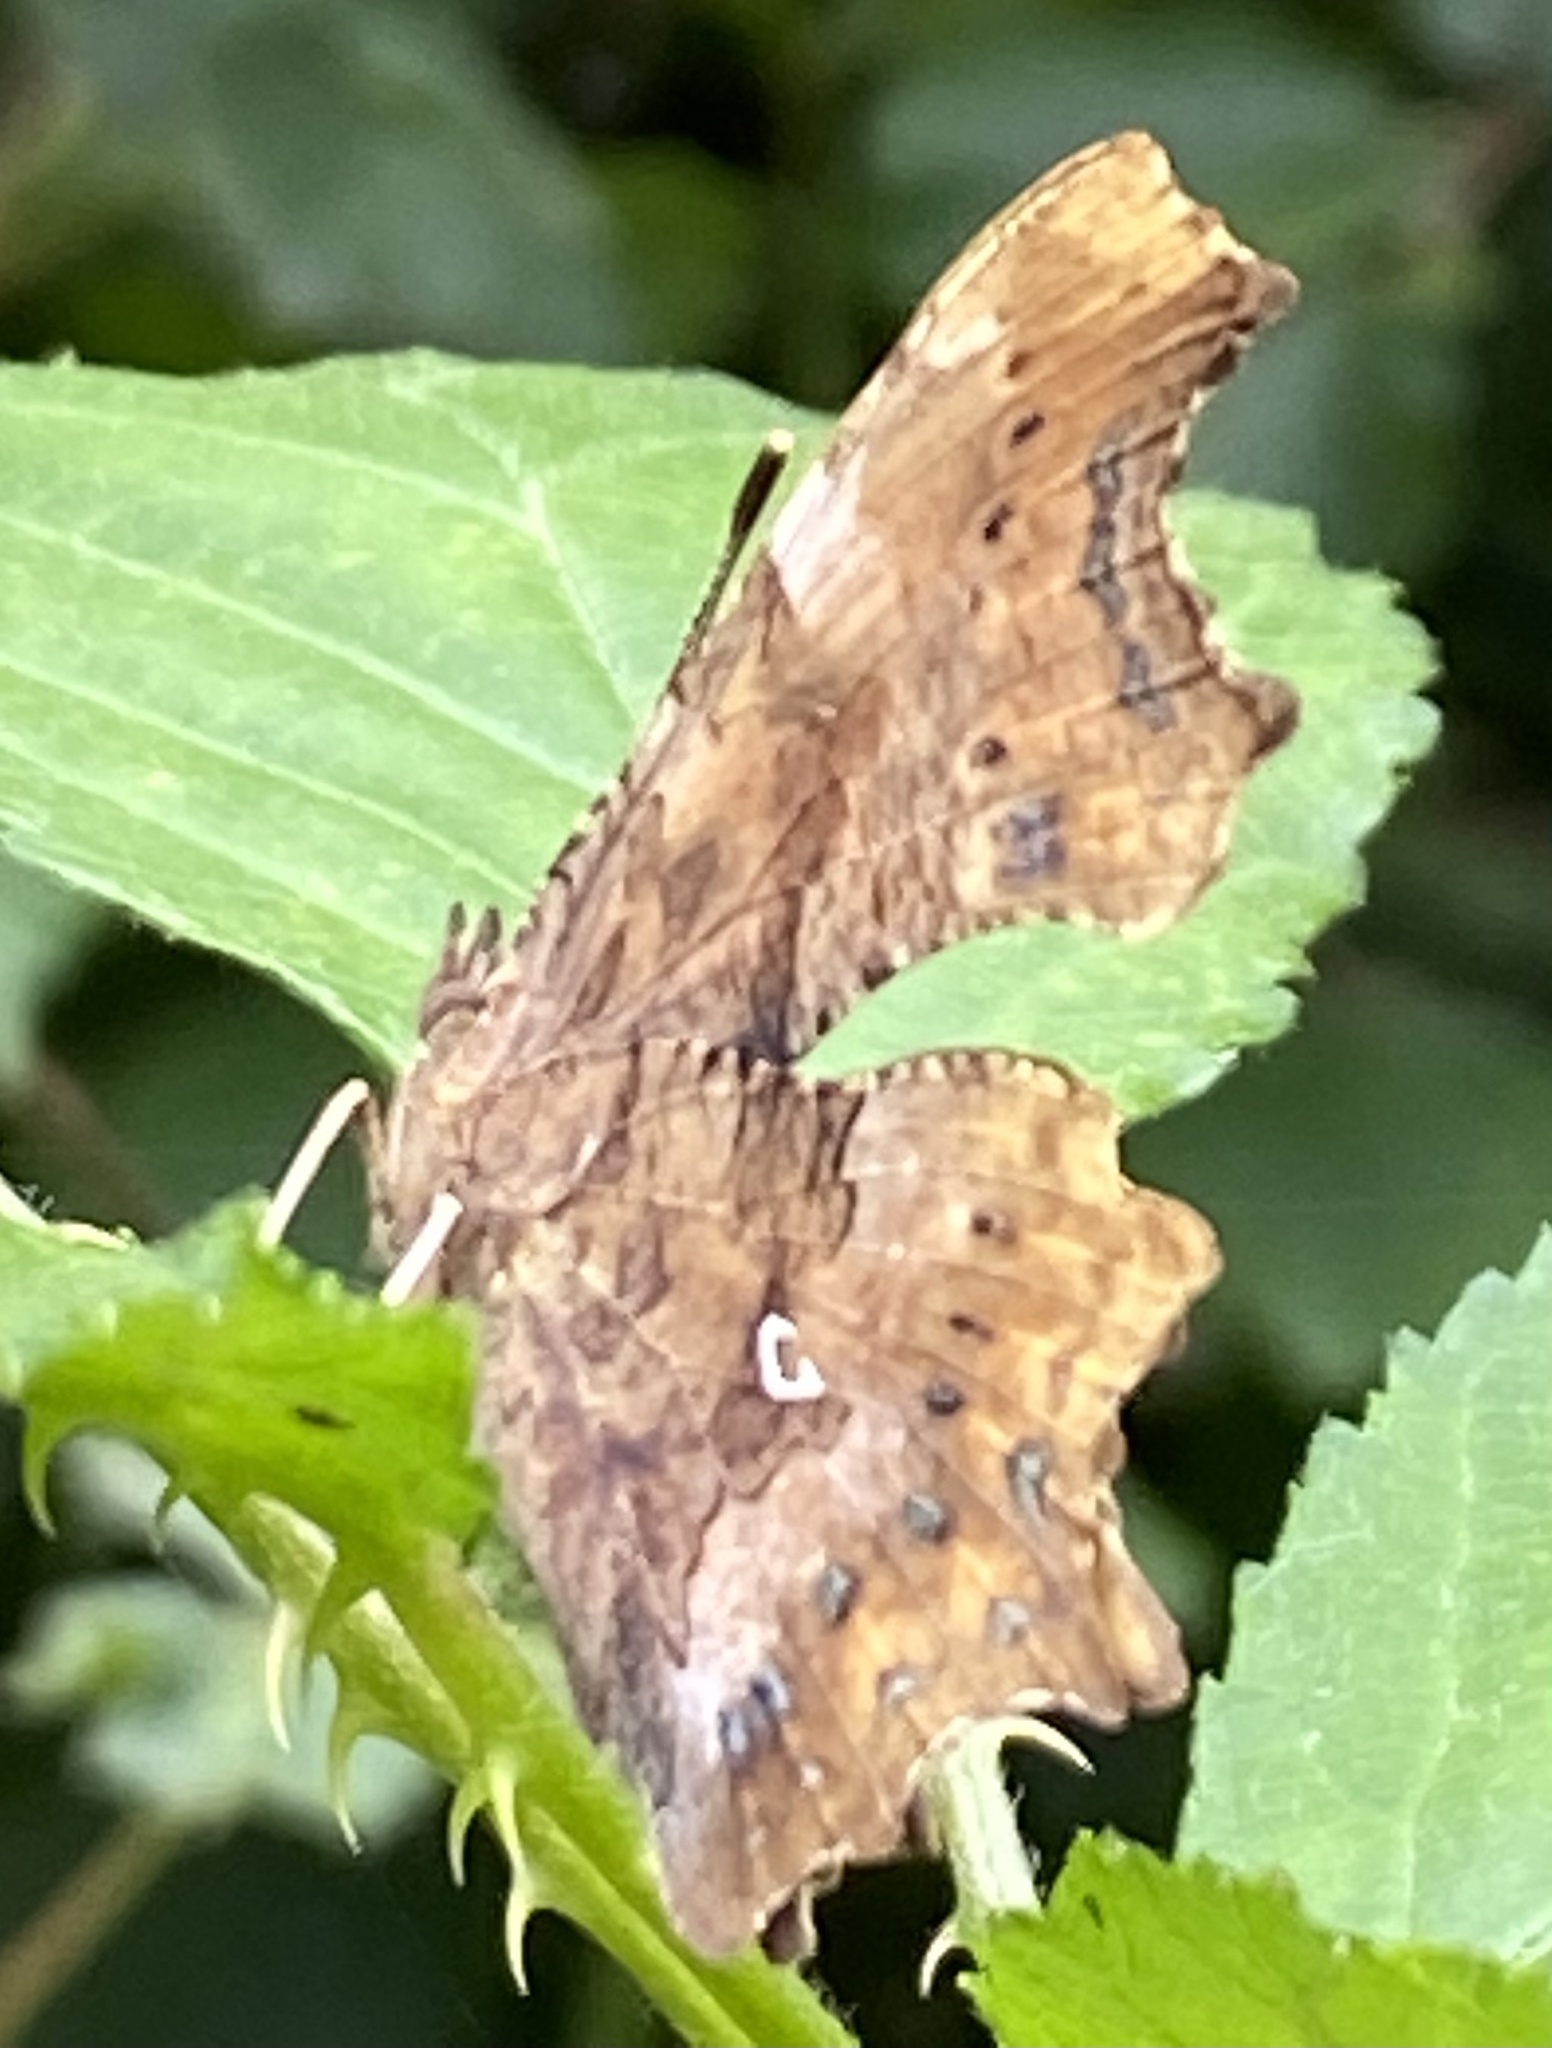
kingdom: Animalia
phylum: Arthropoda
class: Insecta
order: Lepidoptera
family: Nymphalidae
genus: Polygonia
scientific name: Polygonia c-album
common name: Comma
